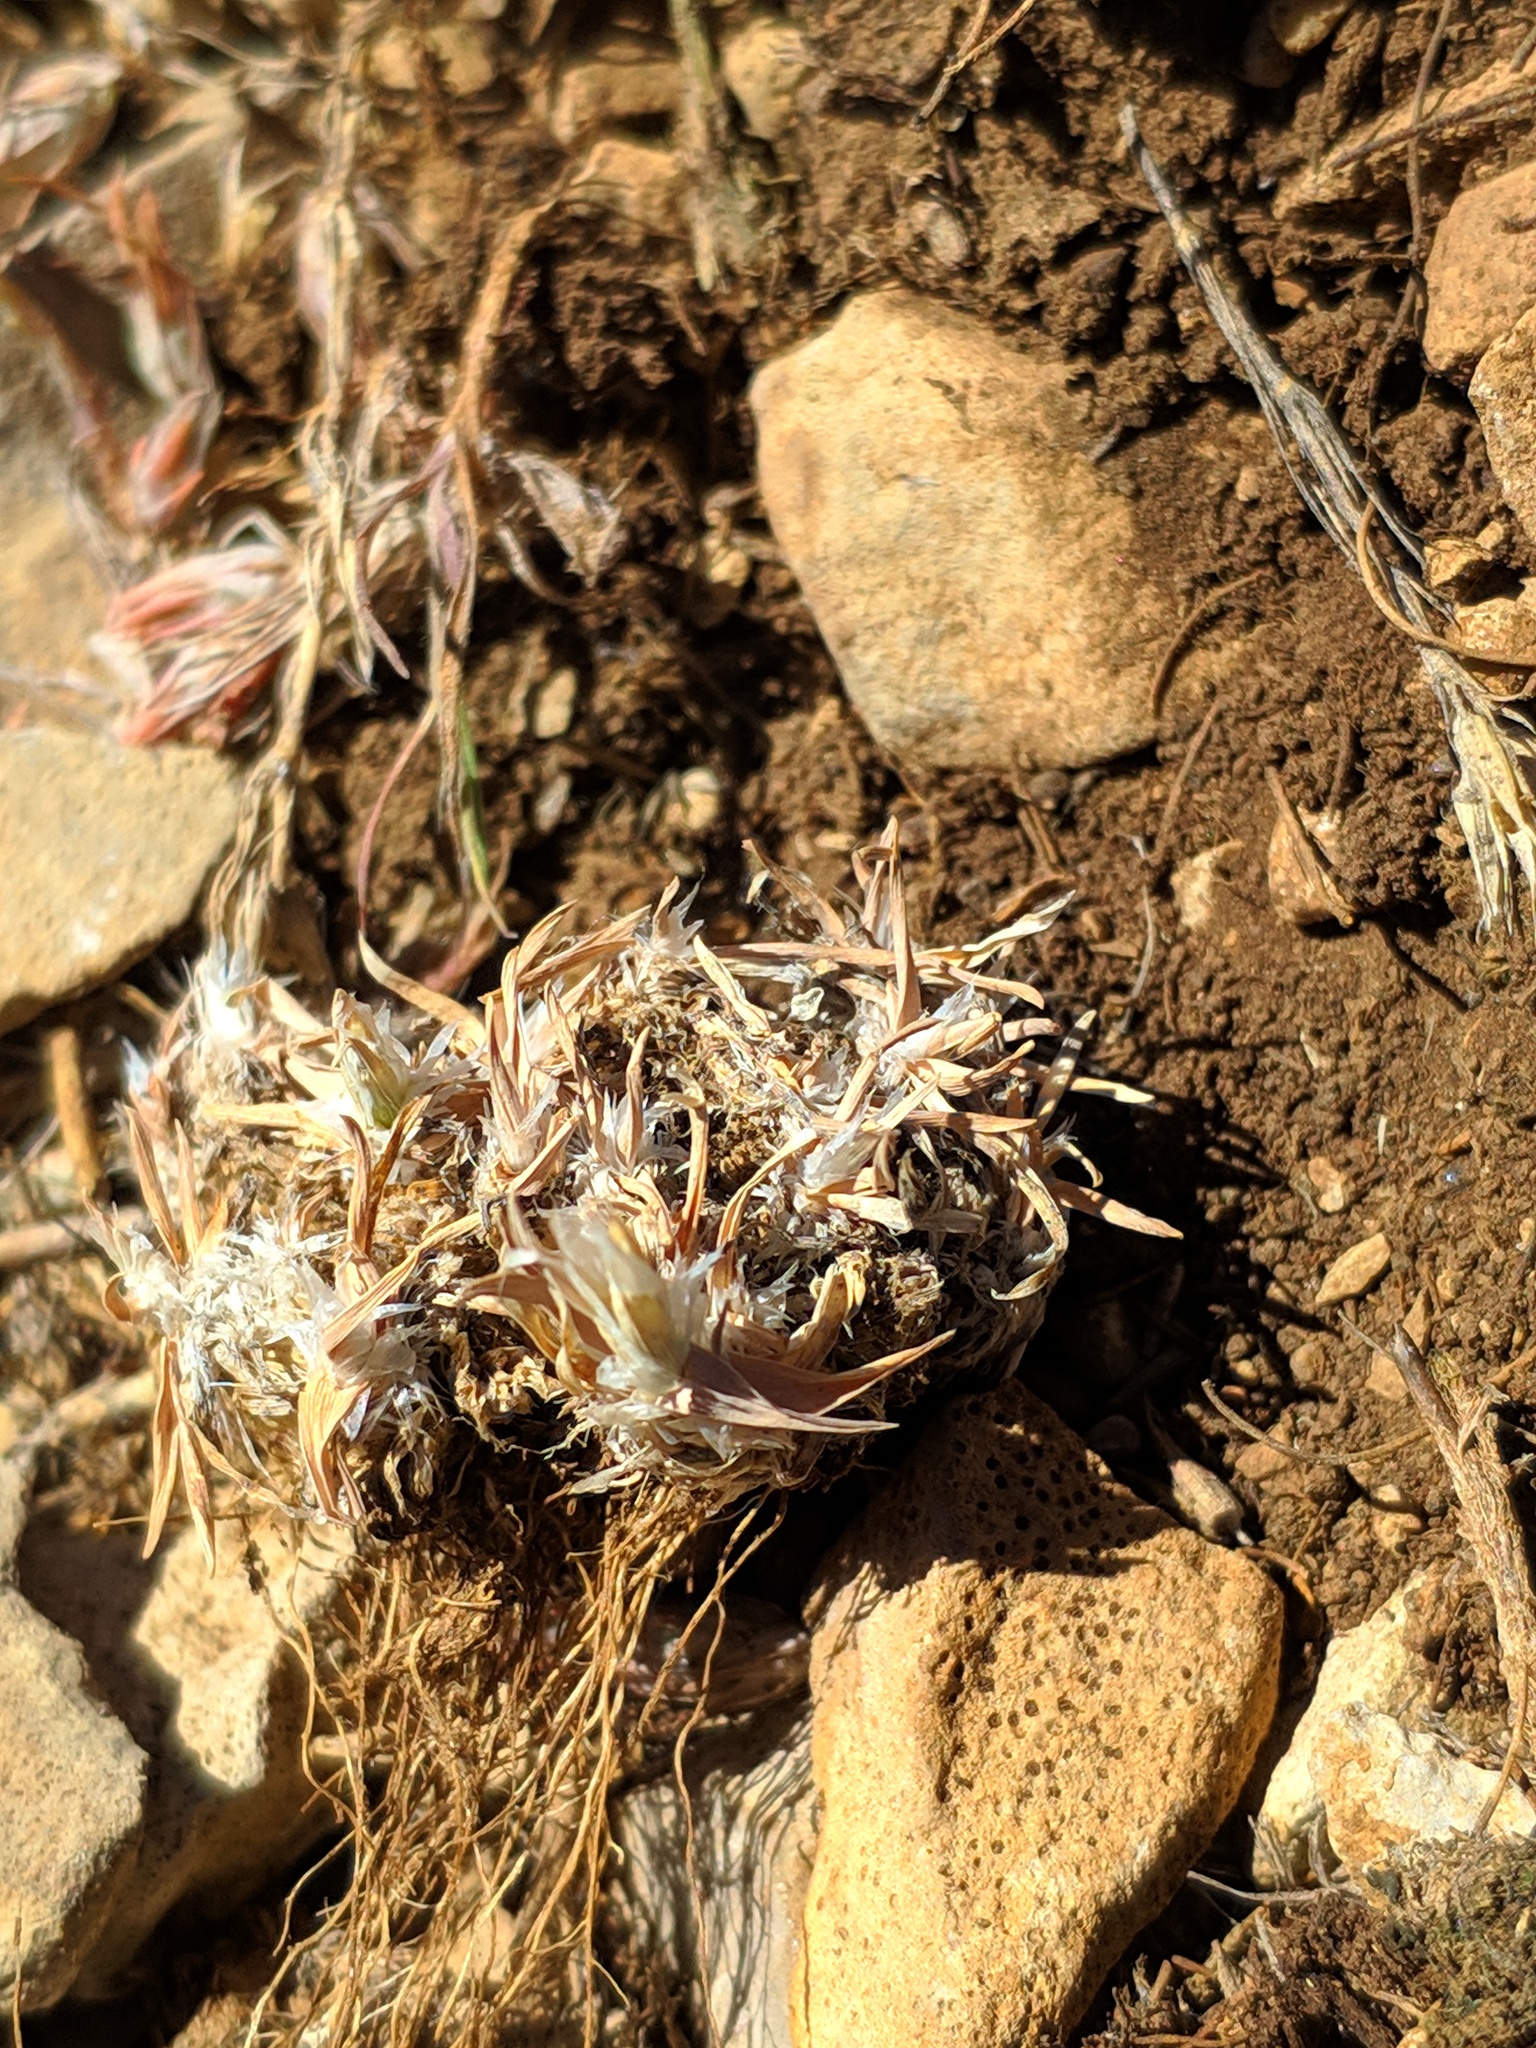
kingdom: Plantae
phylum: Tracheophyta
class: Liliopsida
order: Poales
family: Poaceae
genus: Poa
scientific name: Poa ligulata
